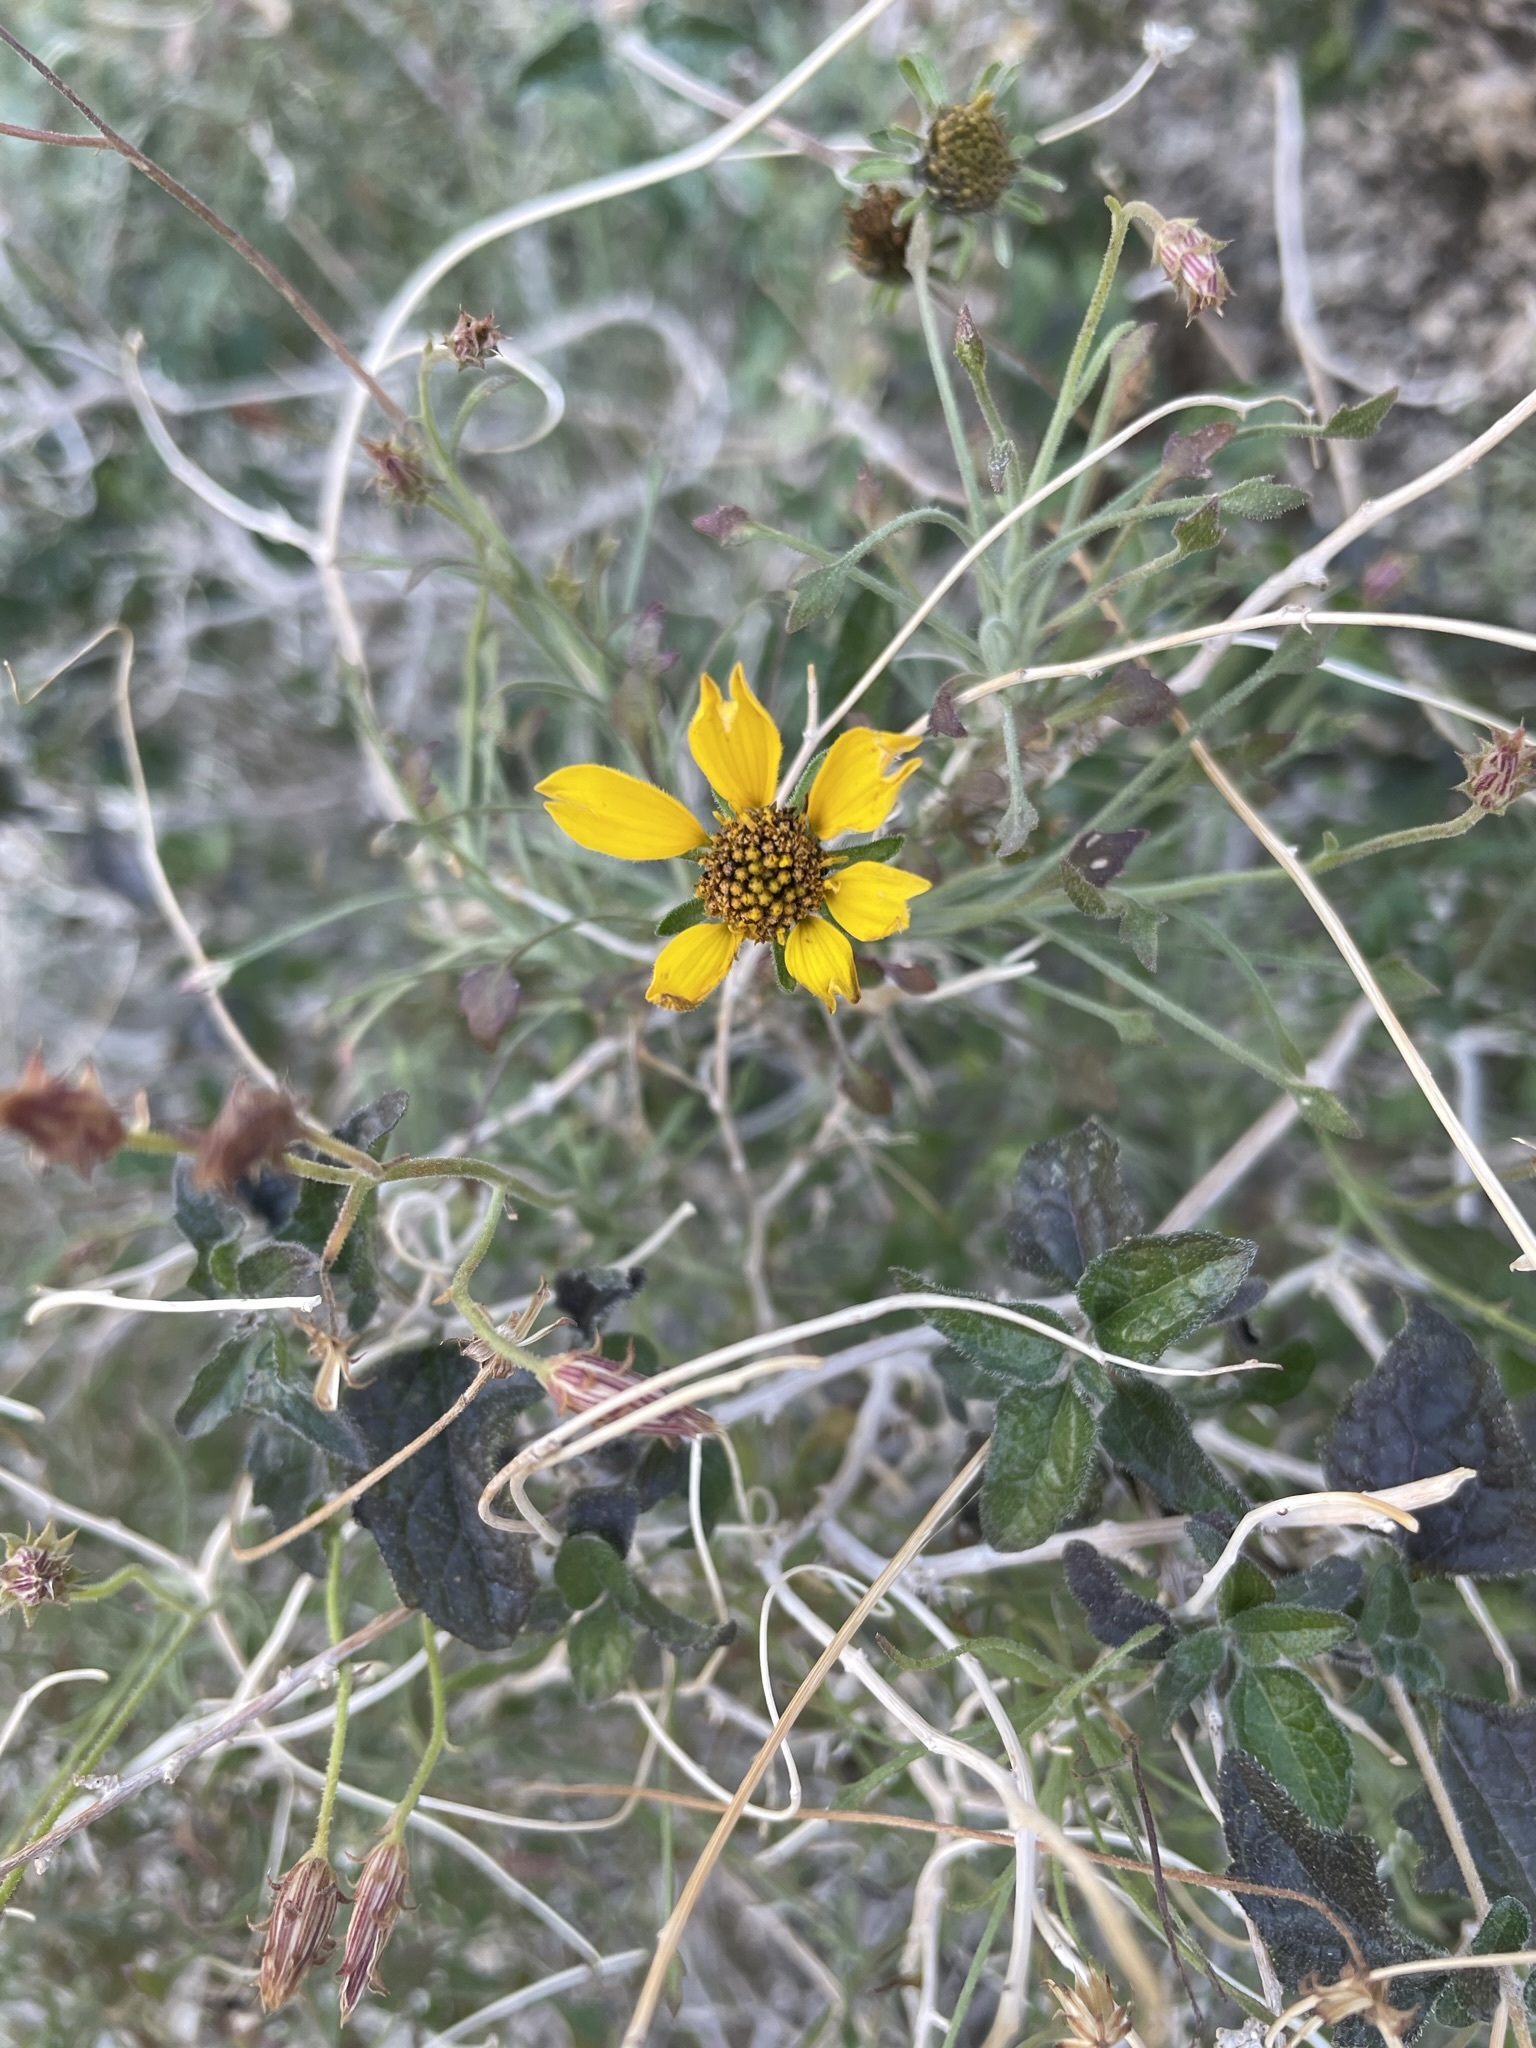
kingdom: Plantae
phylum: Tracheophyta
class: Magnoliopsida
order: Asterales
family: Asteraceae
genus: Bahiopsis
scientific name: Bahiopsis parishii
